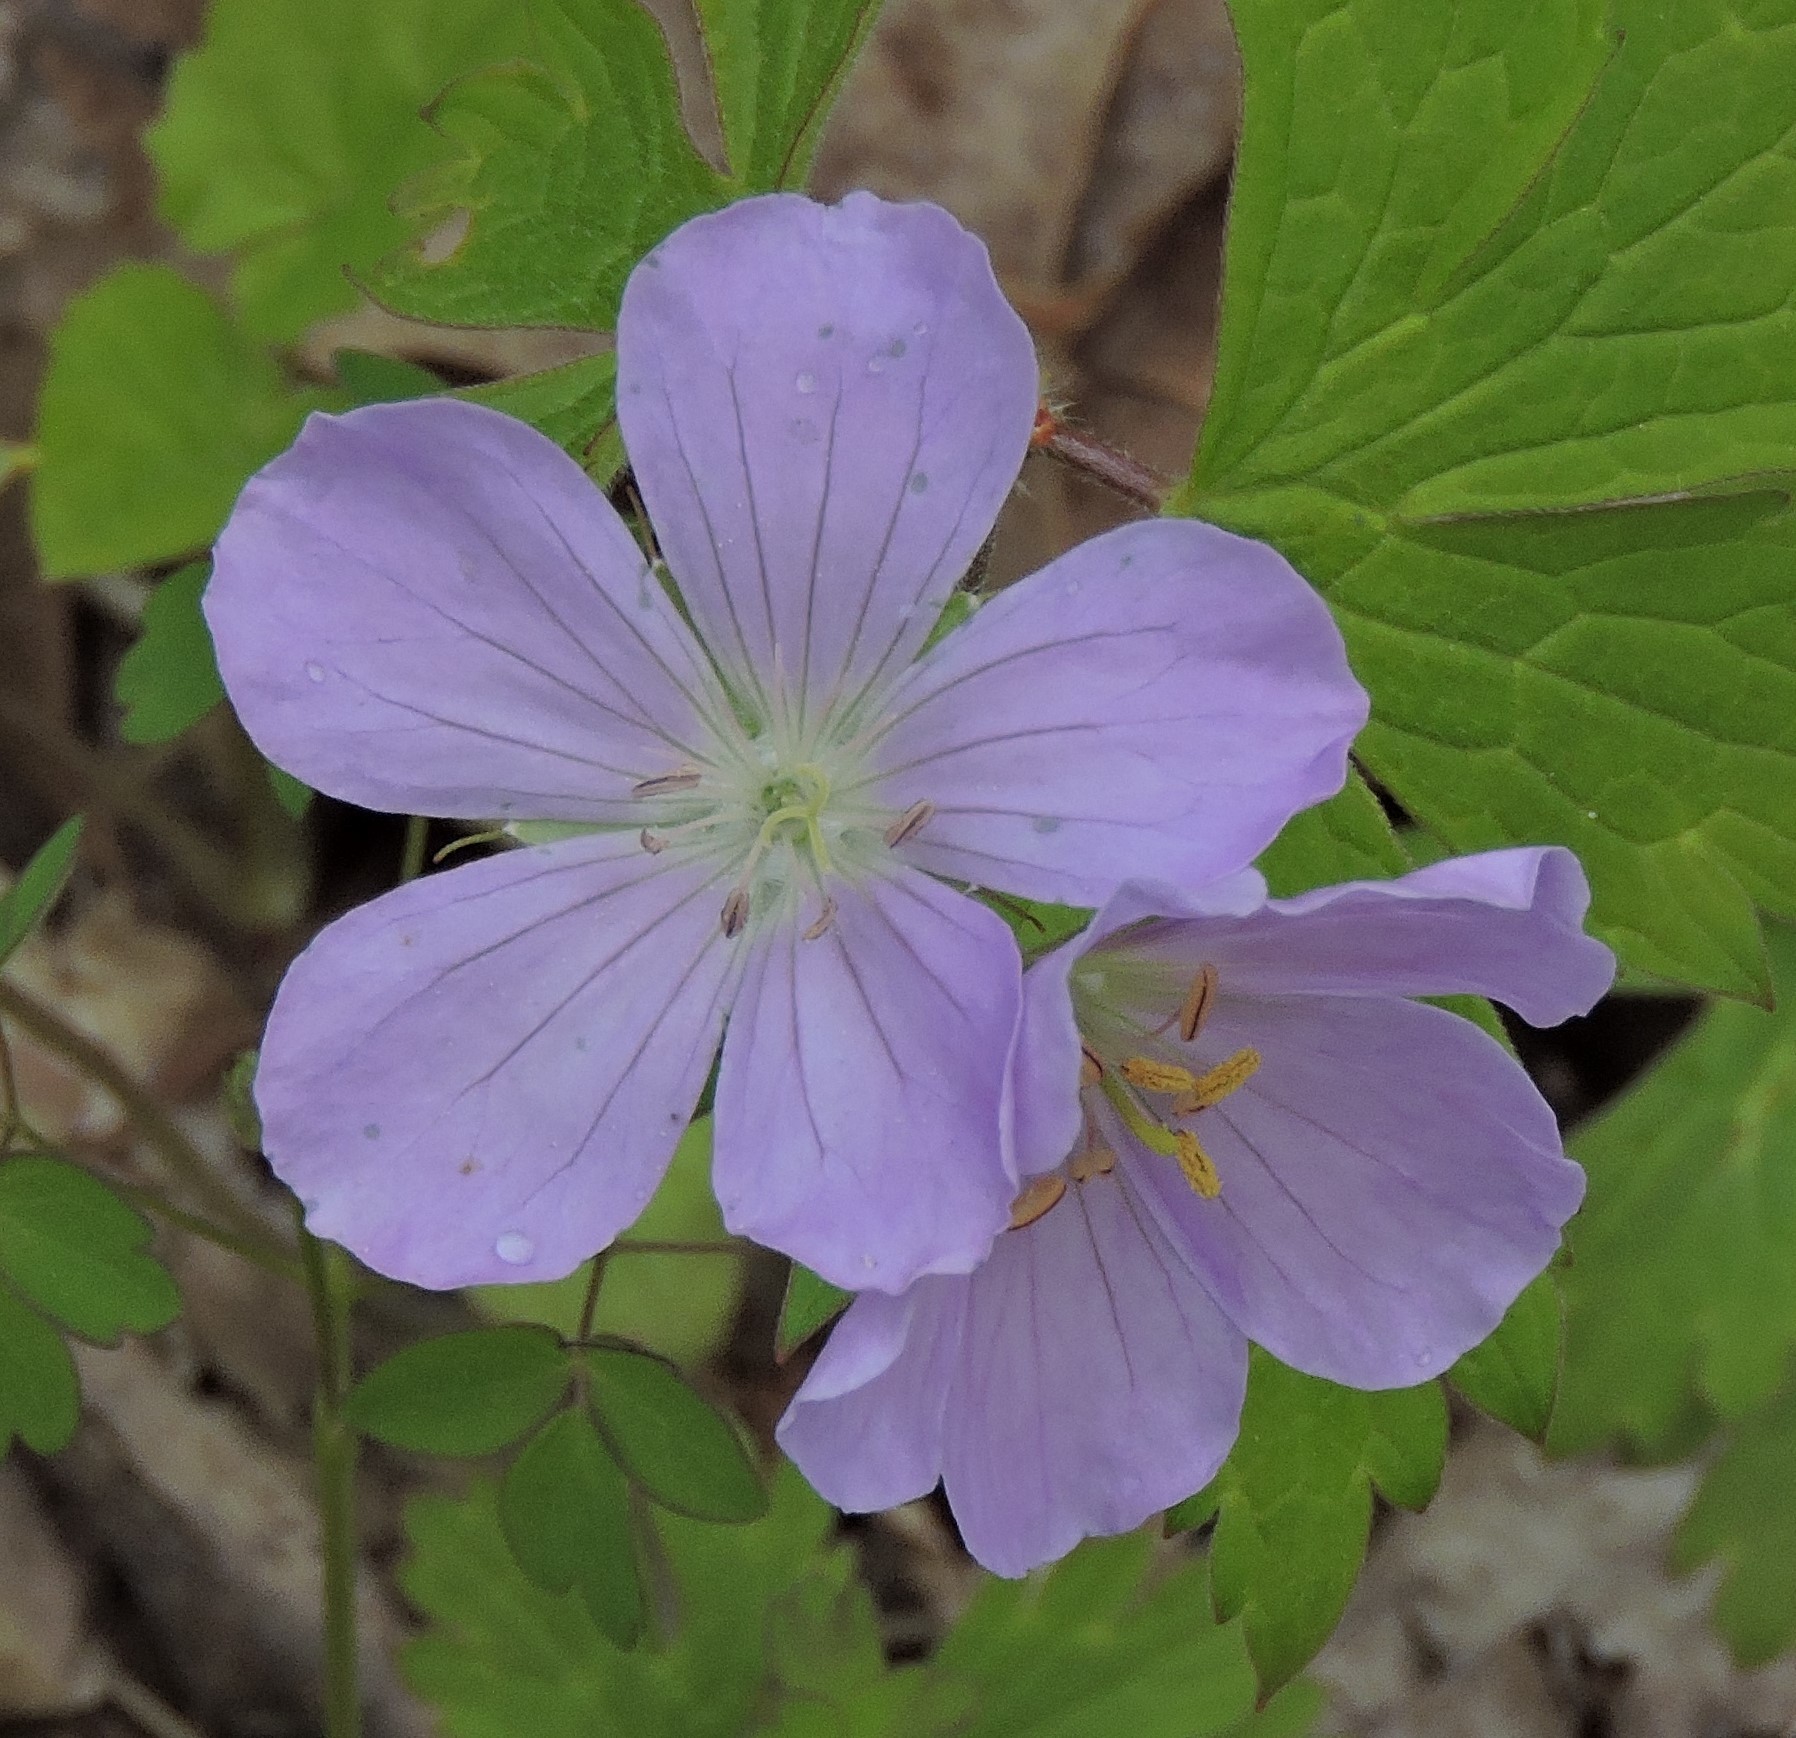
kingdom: Plantae
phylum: Tracheophyta
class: Magnoliopsida
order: Geraniales
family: Geraniaceae
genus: Geranium
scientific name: Geranium maculatum
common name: Spotted geranium
